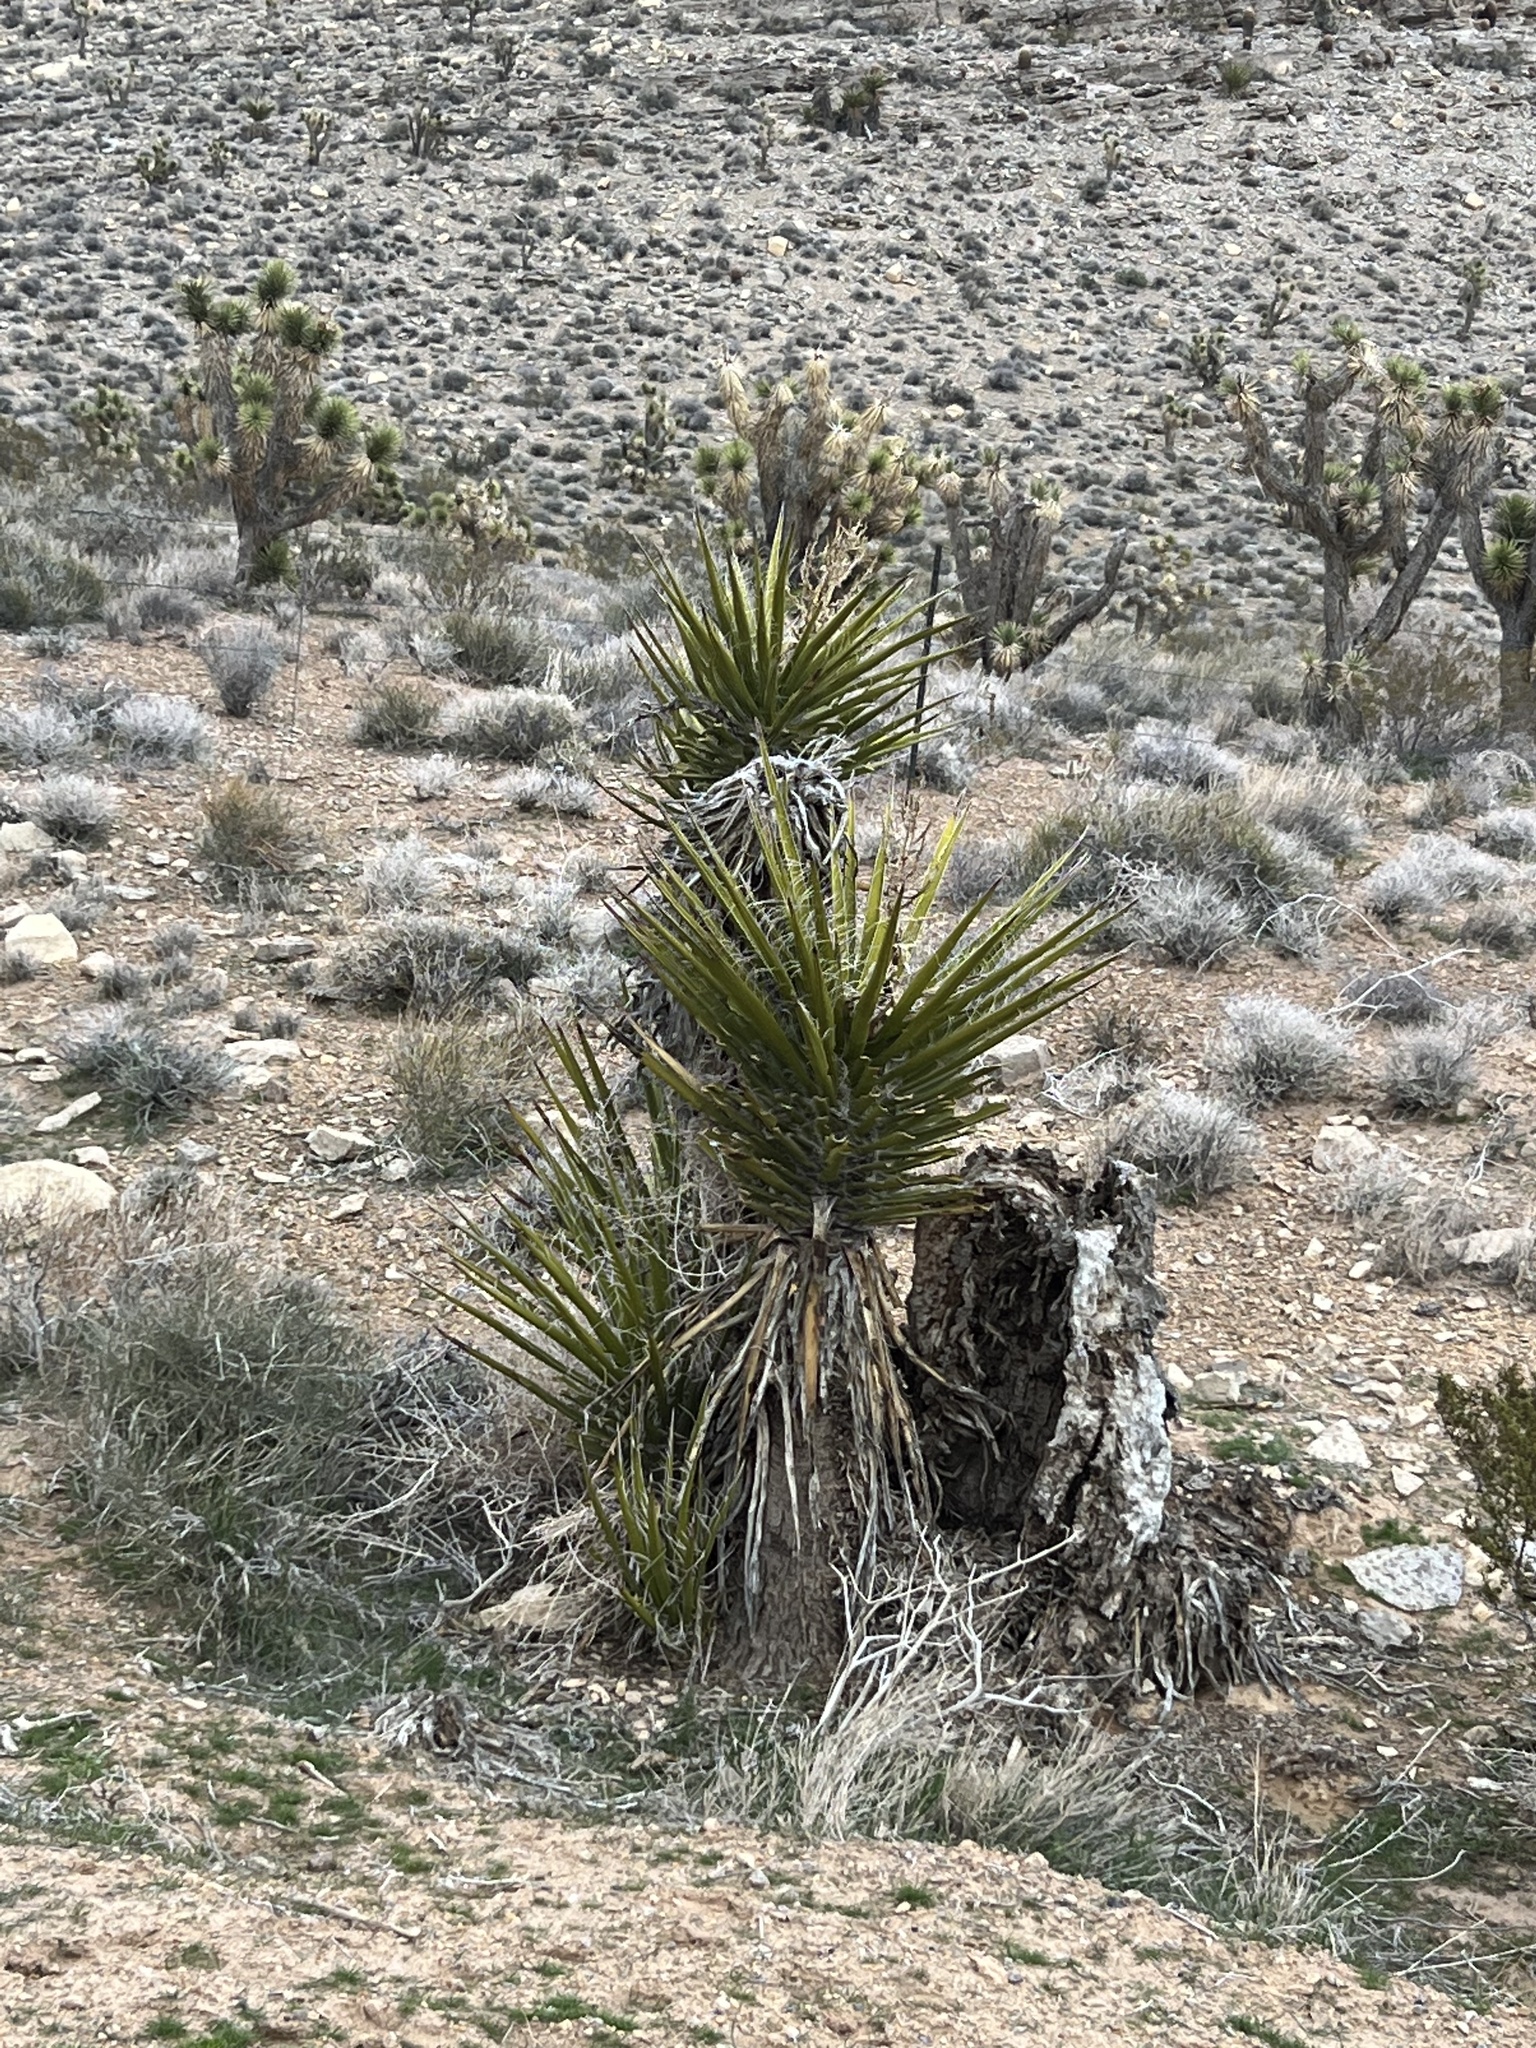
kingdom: Plantae
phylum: Tracheophyta
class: Liliopsida
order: Asparagales
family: Asparagaceae
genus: Yucca
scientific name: Yucca schidigera
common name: Mojave yucca
